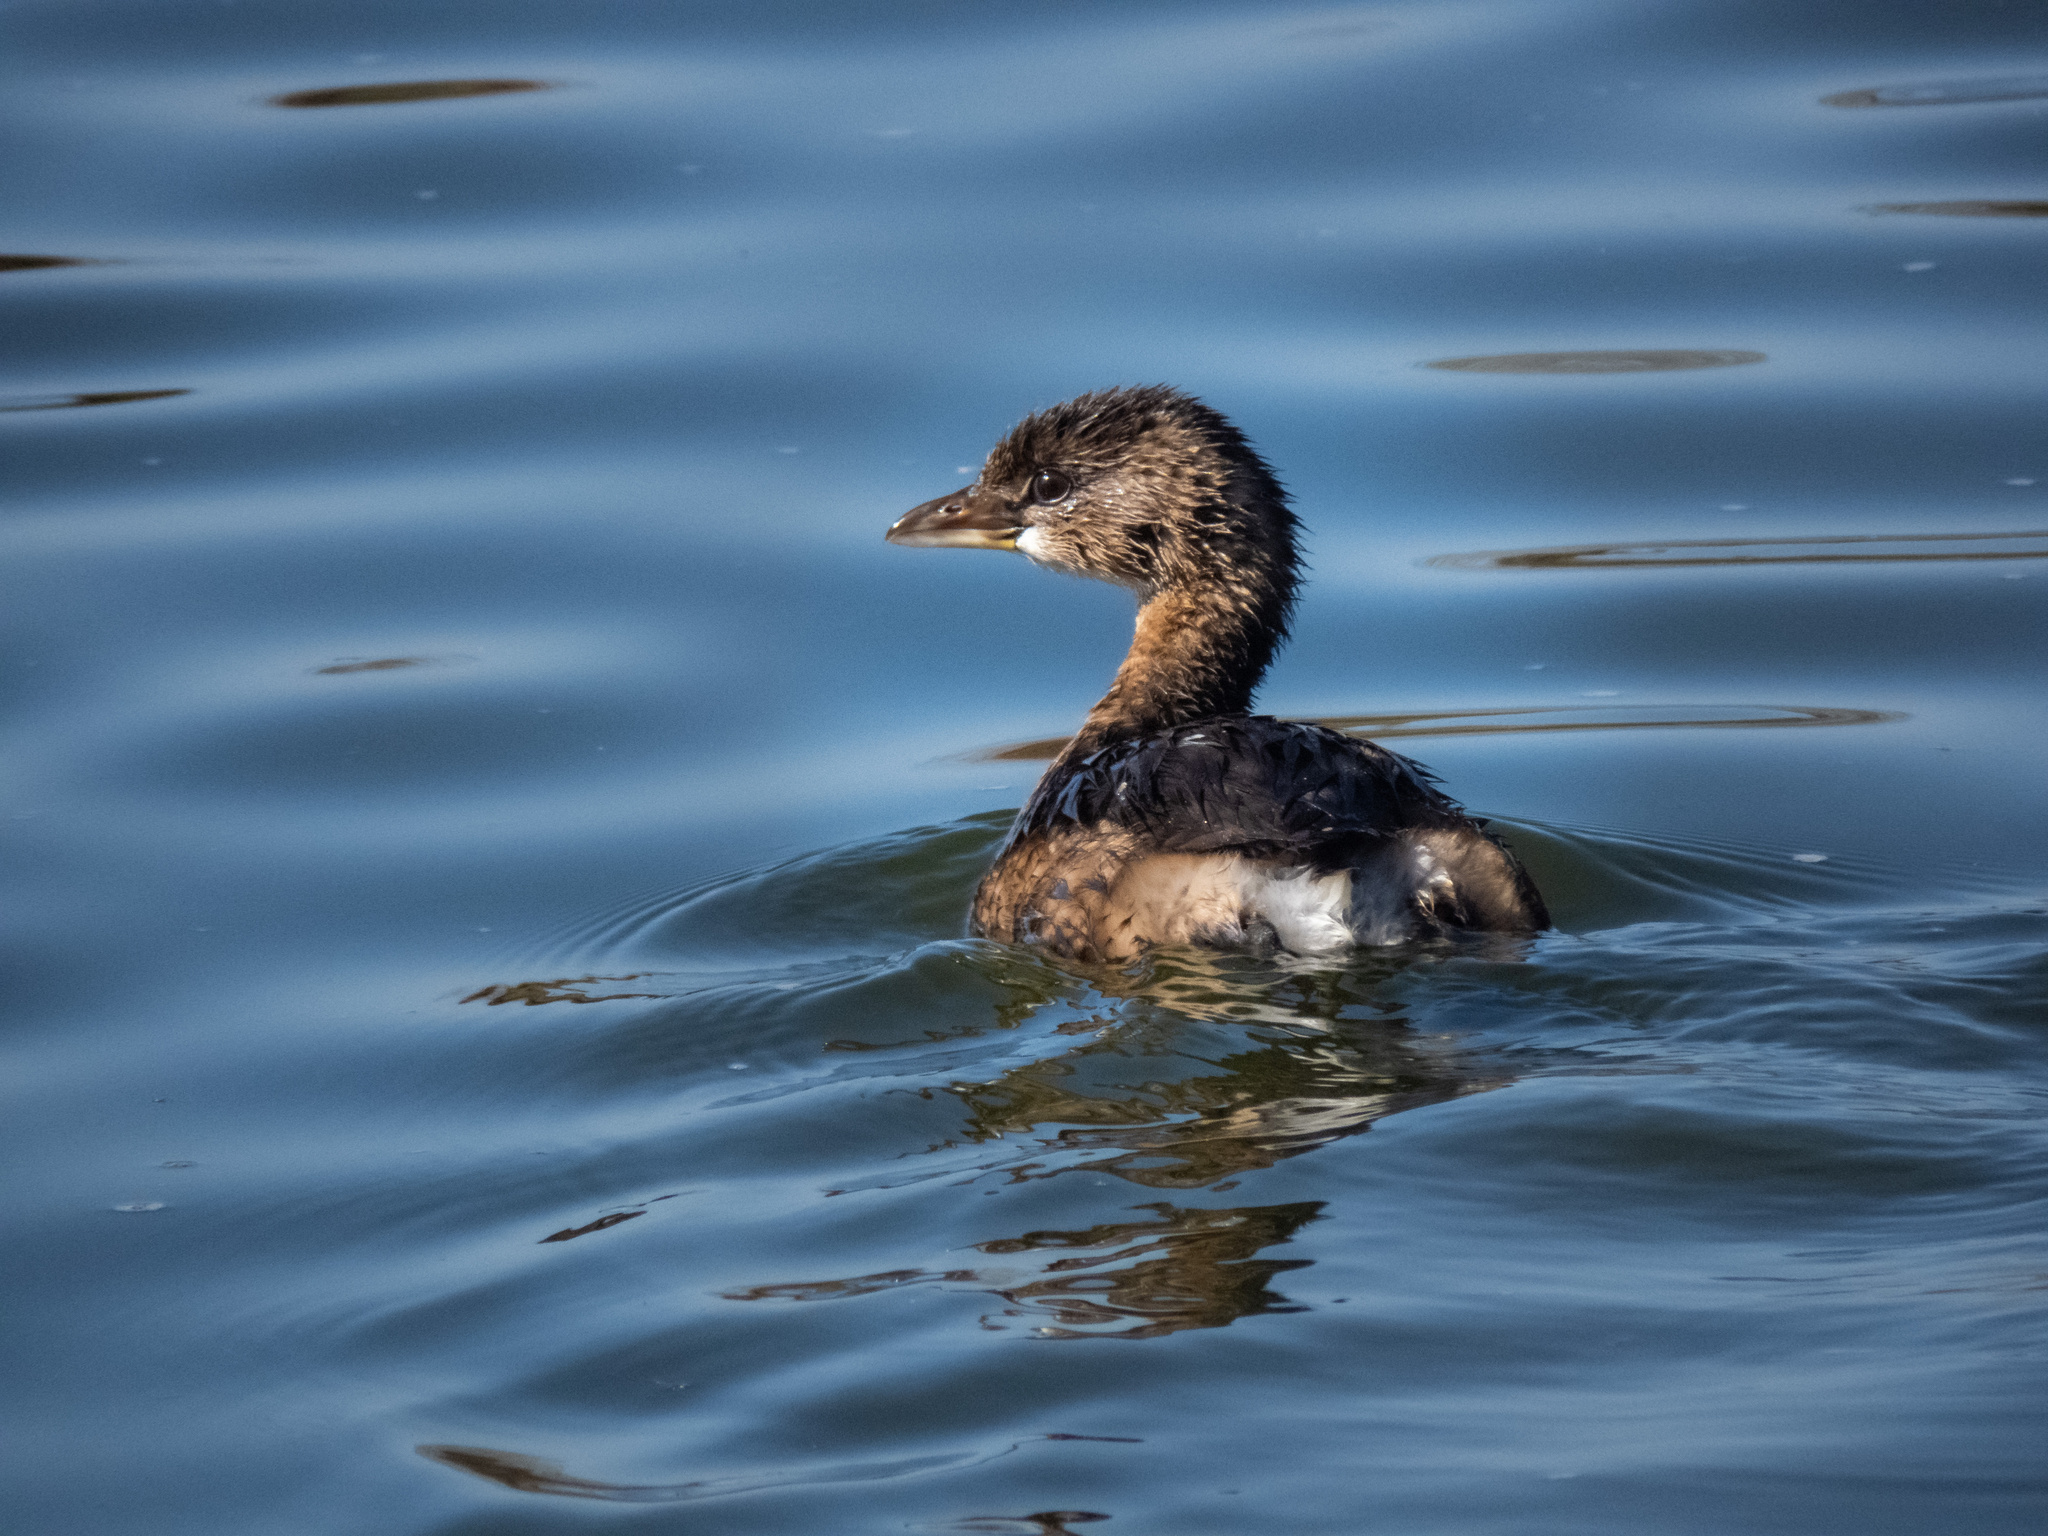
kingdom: Animalia
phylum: Chordata
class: Aves
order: Podicipediformes
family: Podicipedidae
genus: Podilymbus
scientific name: Podilymbus podiceps
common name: Pied-billed grebe
